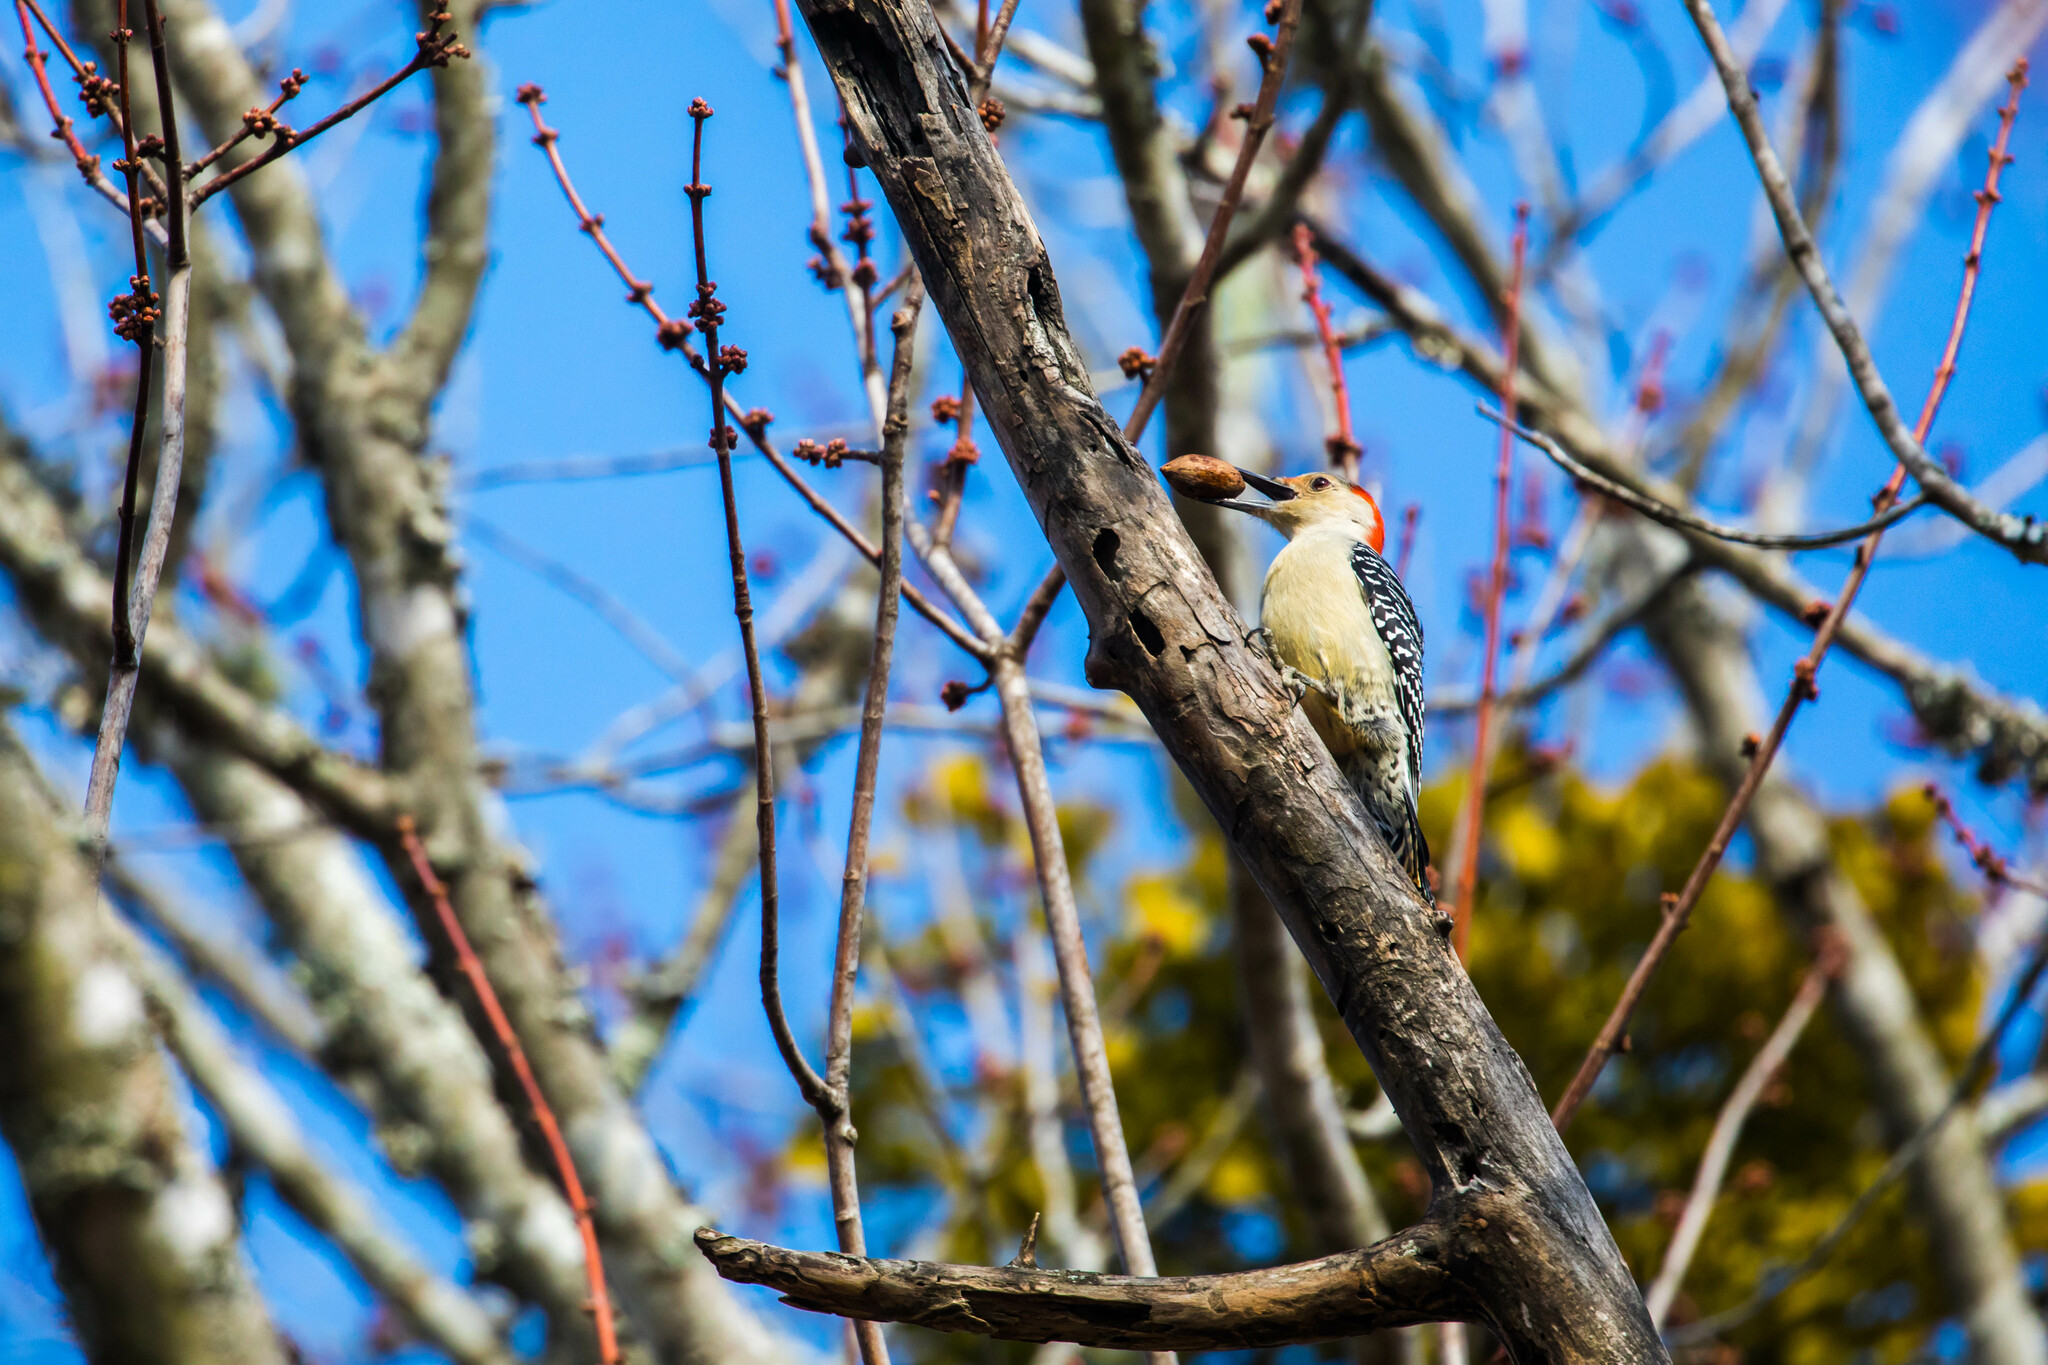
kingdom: Animalia
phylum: Chordata
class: Aves
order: Piciformes
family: Picidae
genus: Melanerpes
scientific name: Melanerpes carolinus
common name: Red-bellied woodpecker
